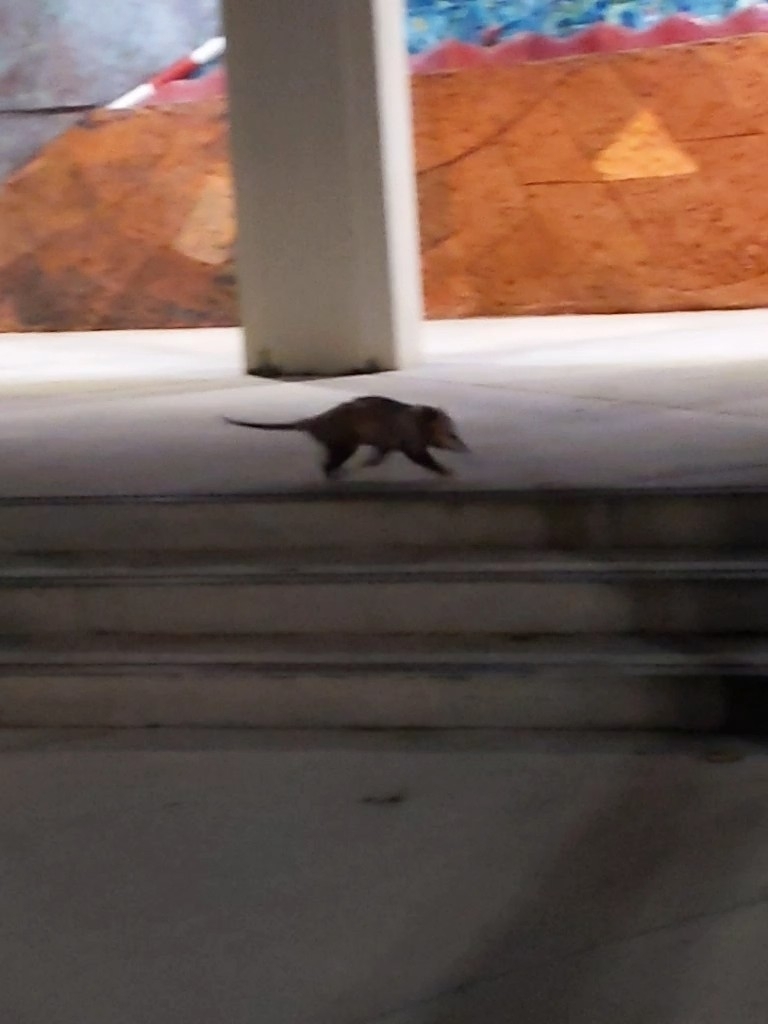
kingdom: Animalia
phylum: Chordata
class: Mammalia
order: Didelphimorphia
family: Didelphidae
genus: Didelphis
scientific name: Didelphis virginiana
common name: Virginia opossum
